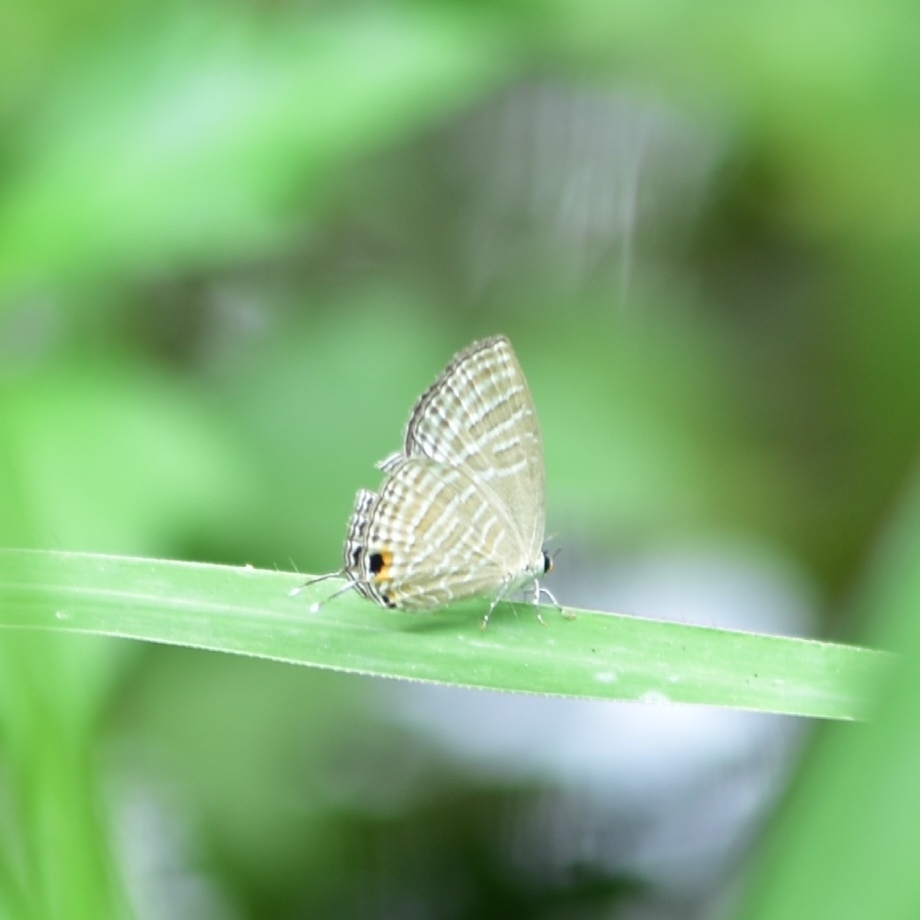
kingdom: Animalia
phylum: Arthropoda
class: Insecta
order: Lepidoptera
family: Lycaenidae
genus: Jamides
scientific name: Jamides celeno
